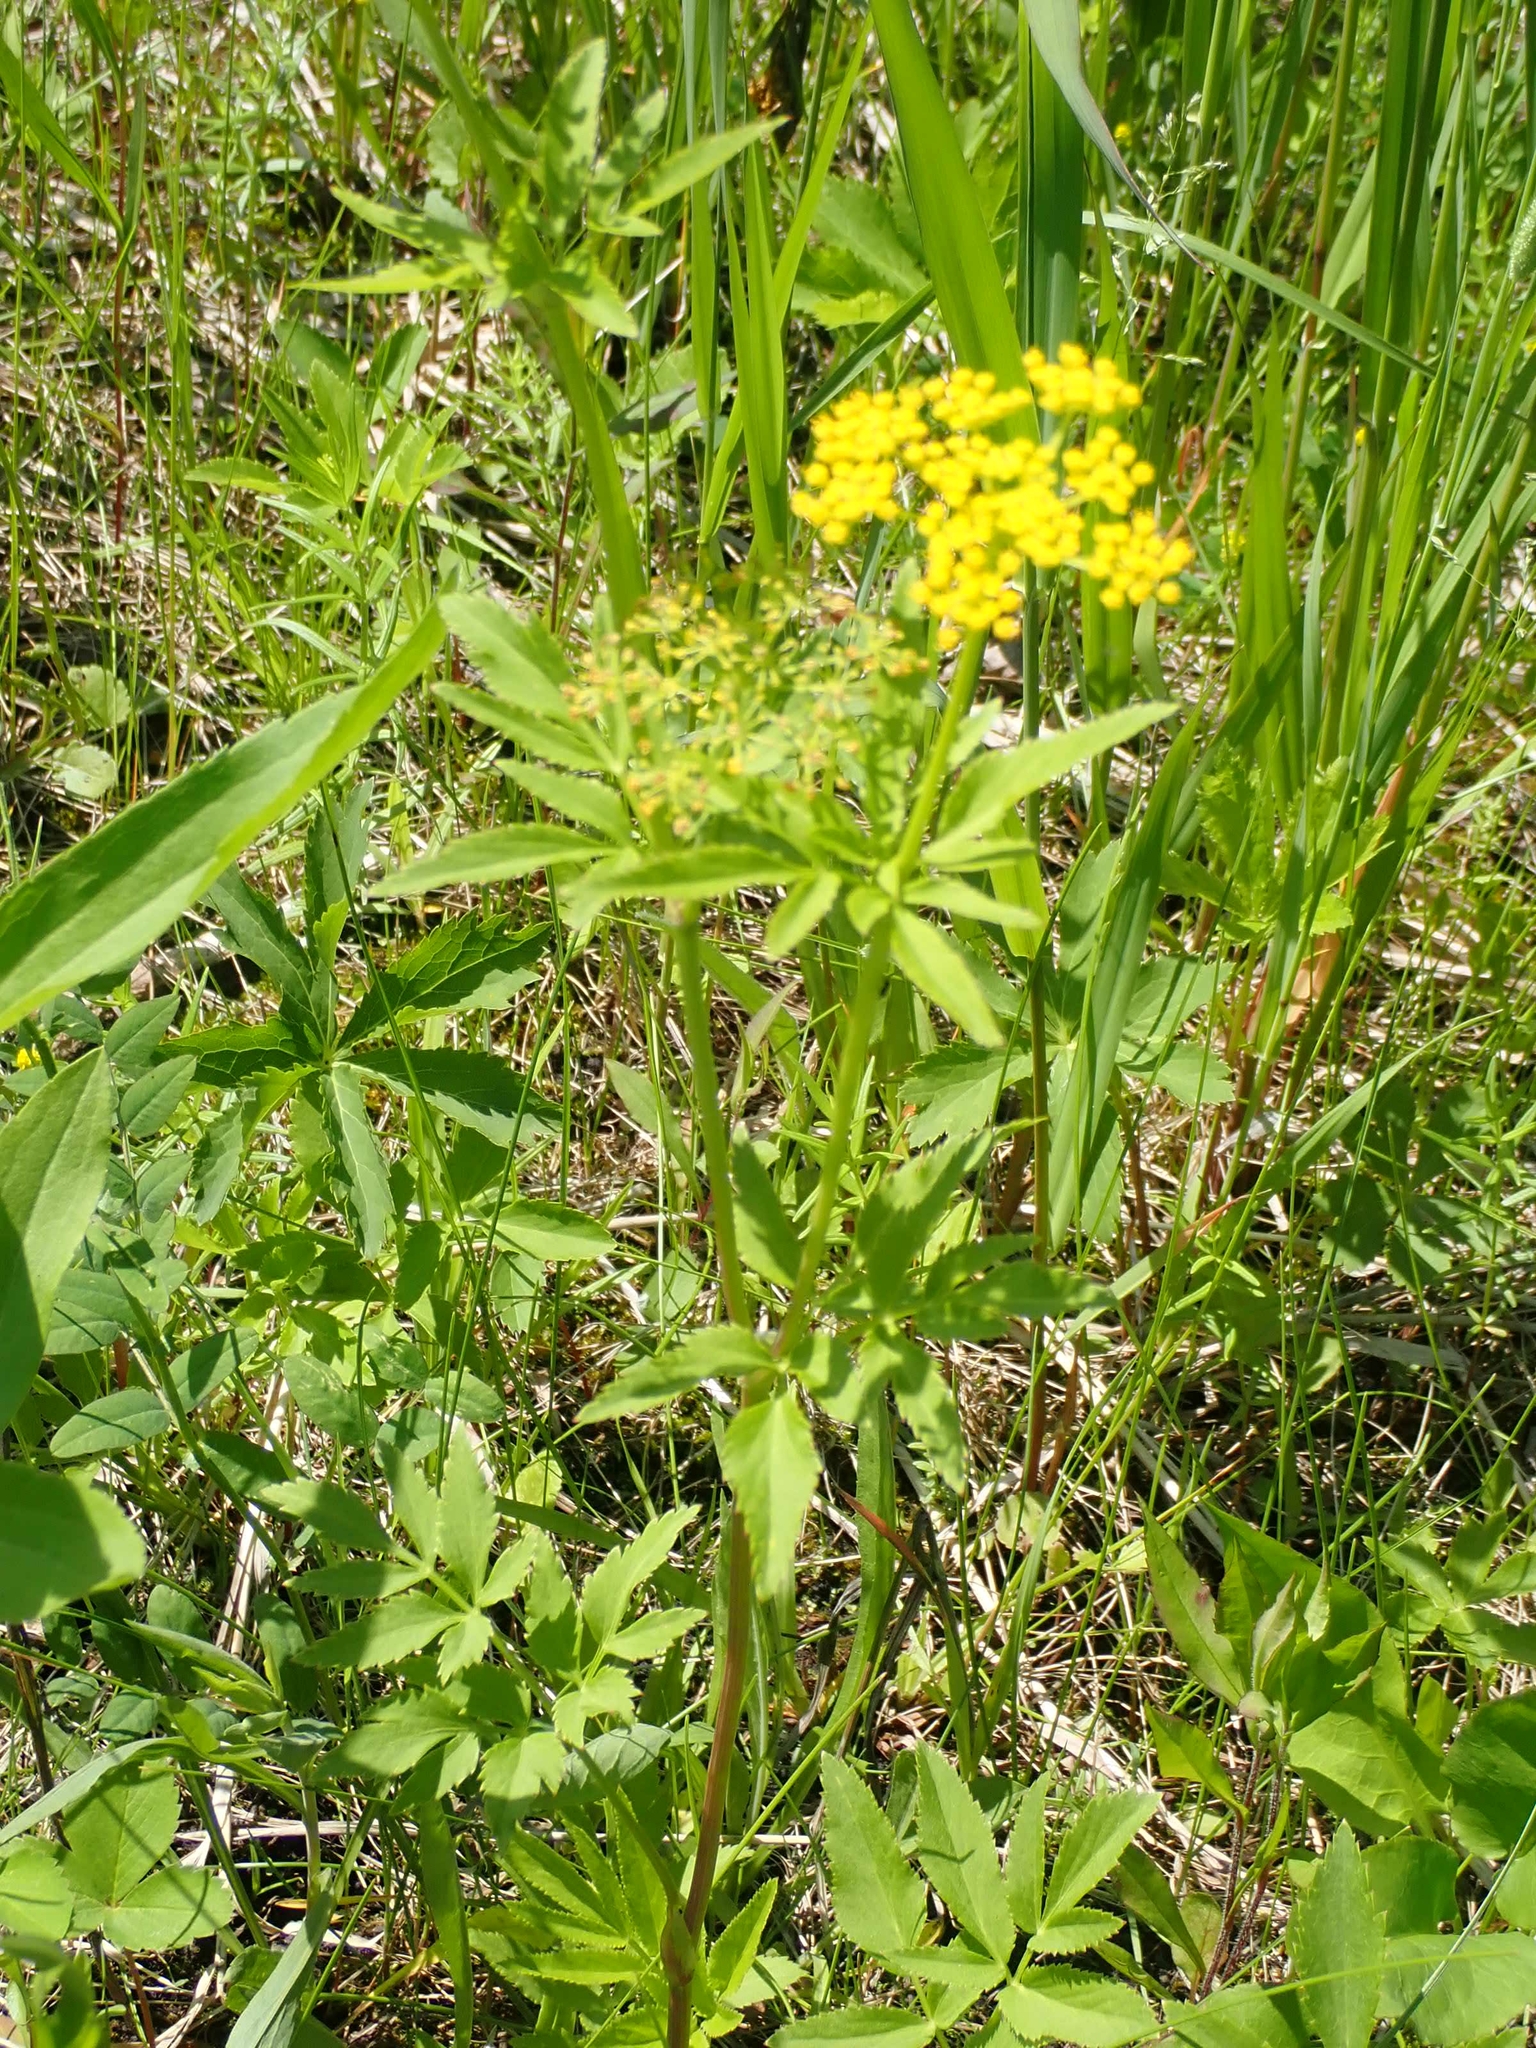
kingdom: Plantae
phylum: Tracheophyta
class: Magnoliopsida
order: Apiales
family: Apiaceae
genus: Zizia
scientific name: Zizia aurea
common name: Golden alexanders
